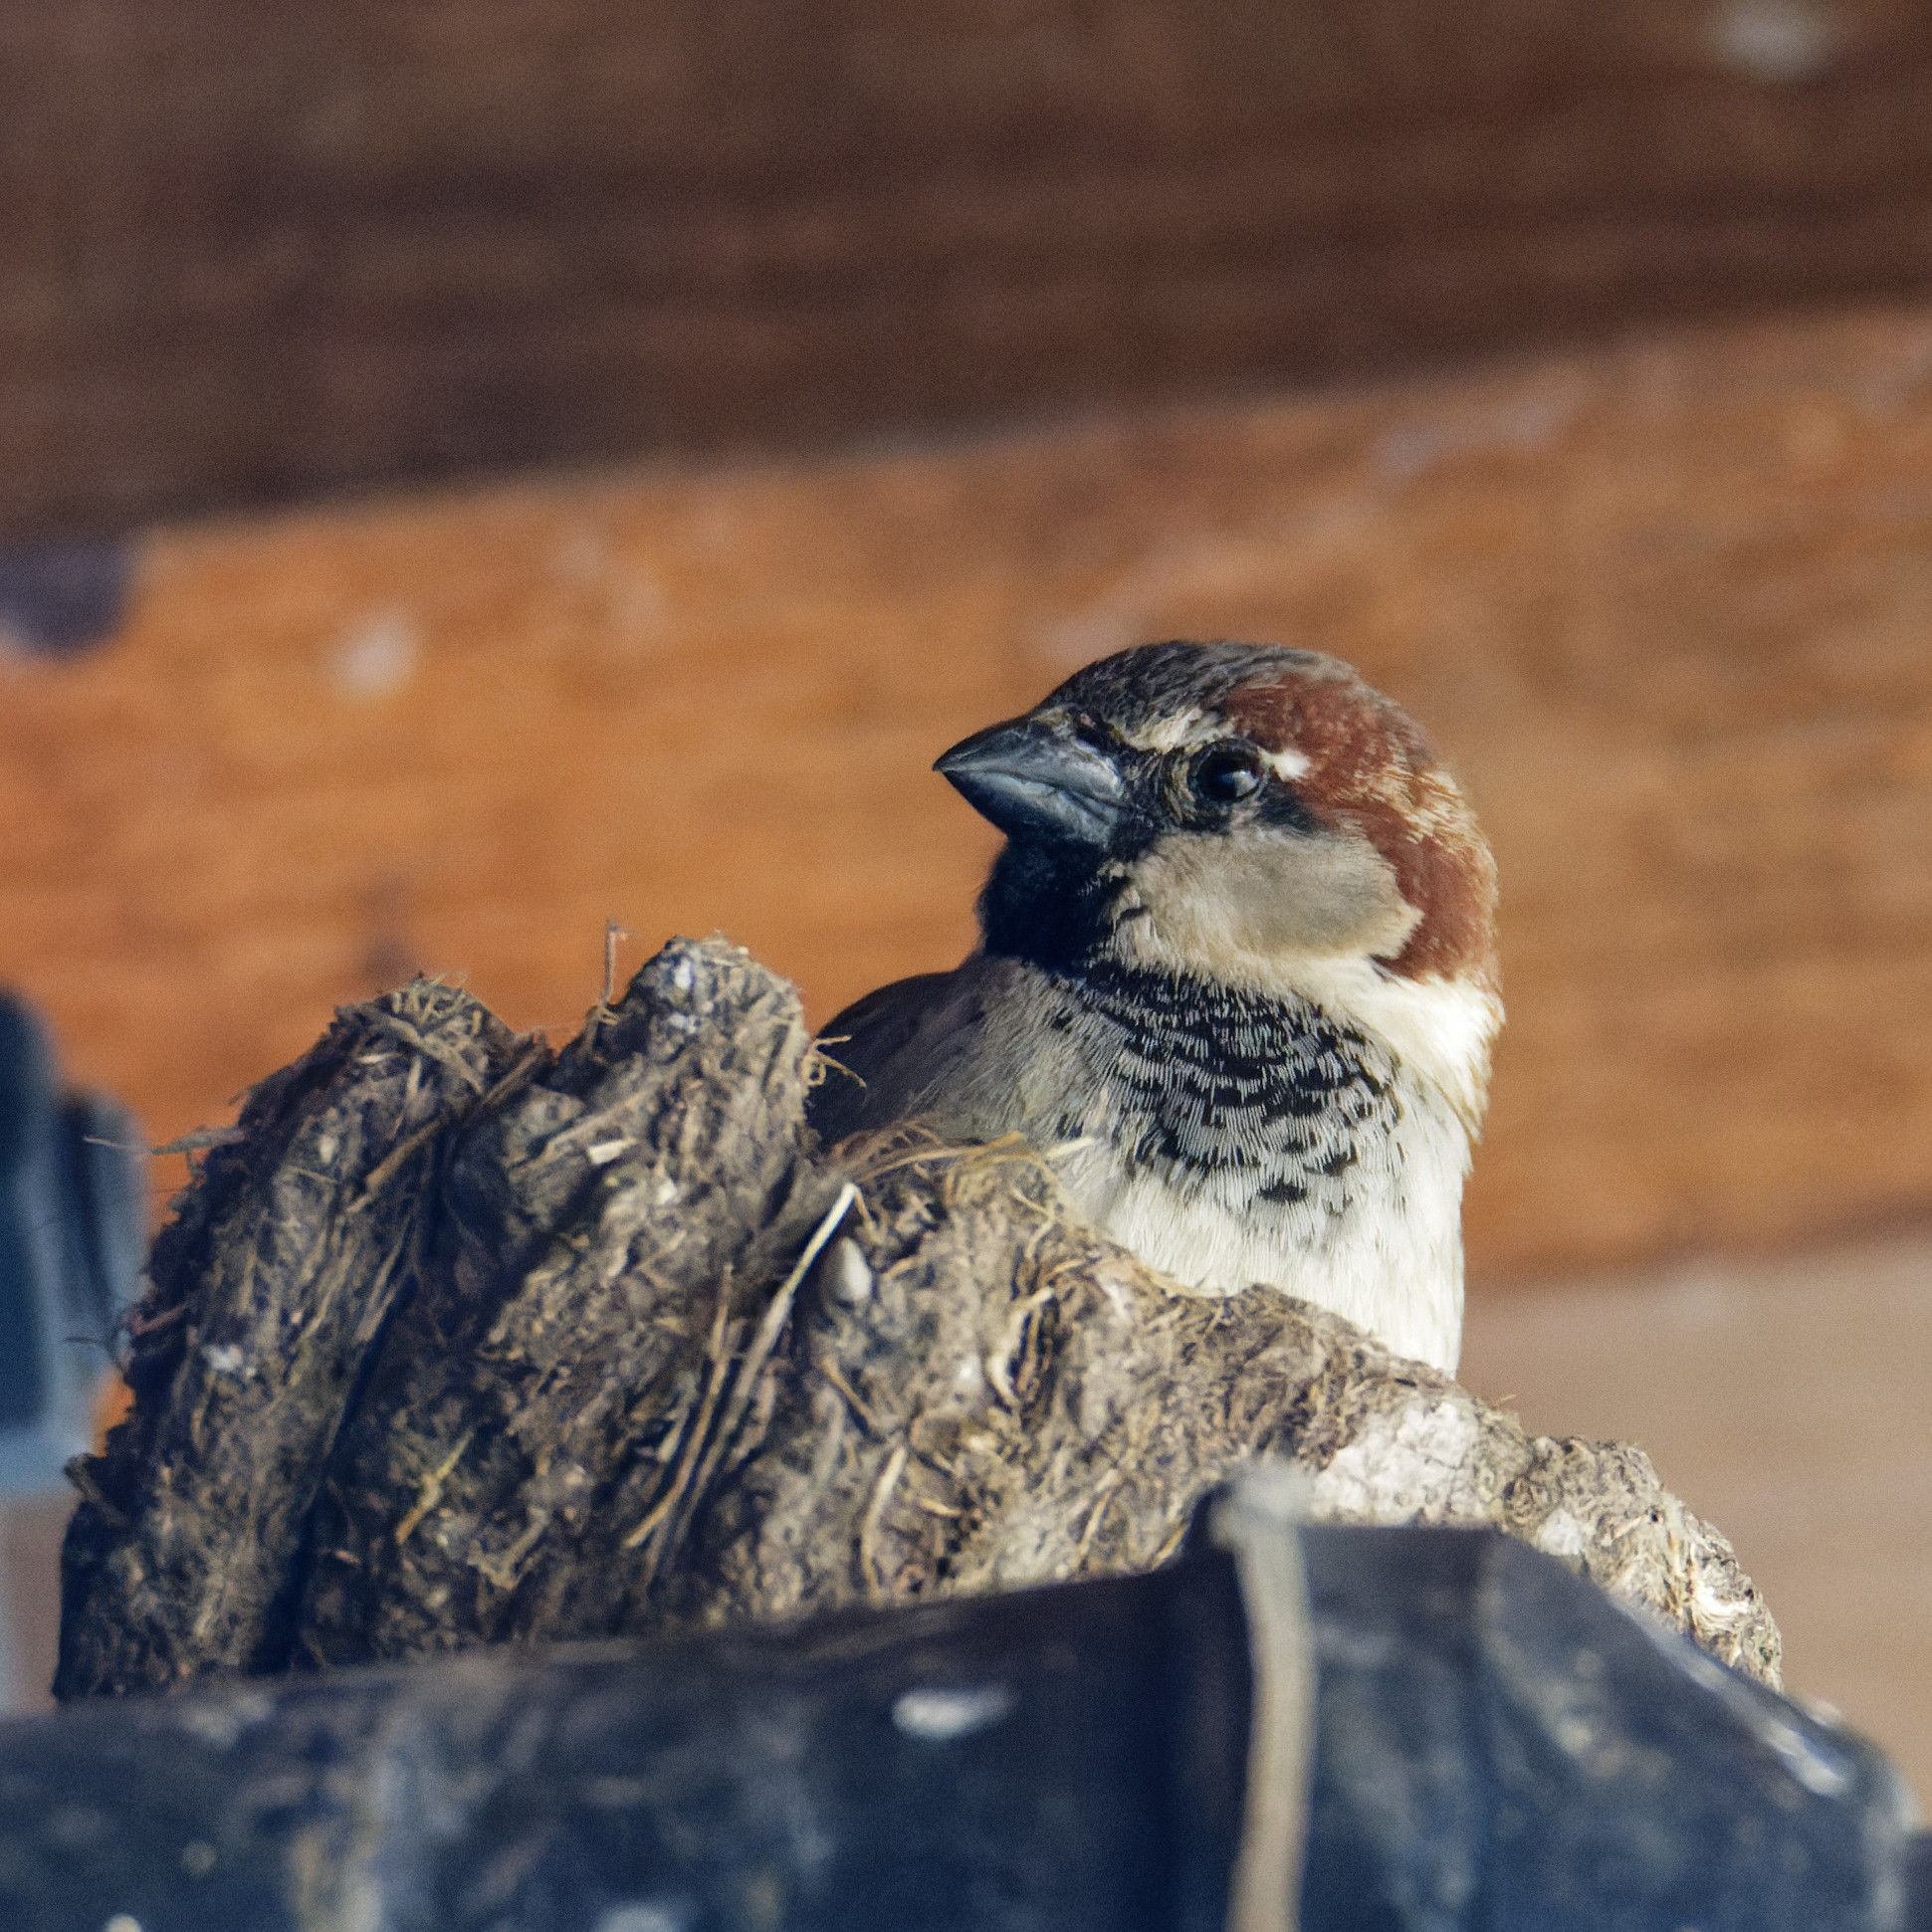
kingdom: Animalia
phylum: Chordata
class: Aves
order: Passeriformes
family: Passeridae
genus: Passer
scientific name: Passer domesticus
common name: House sparrow
